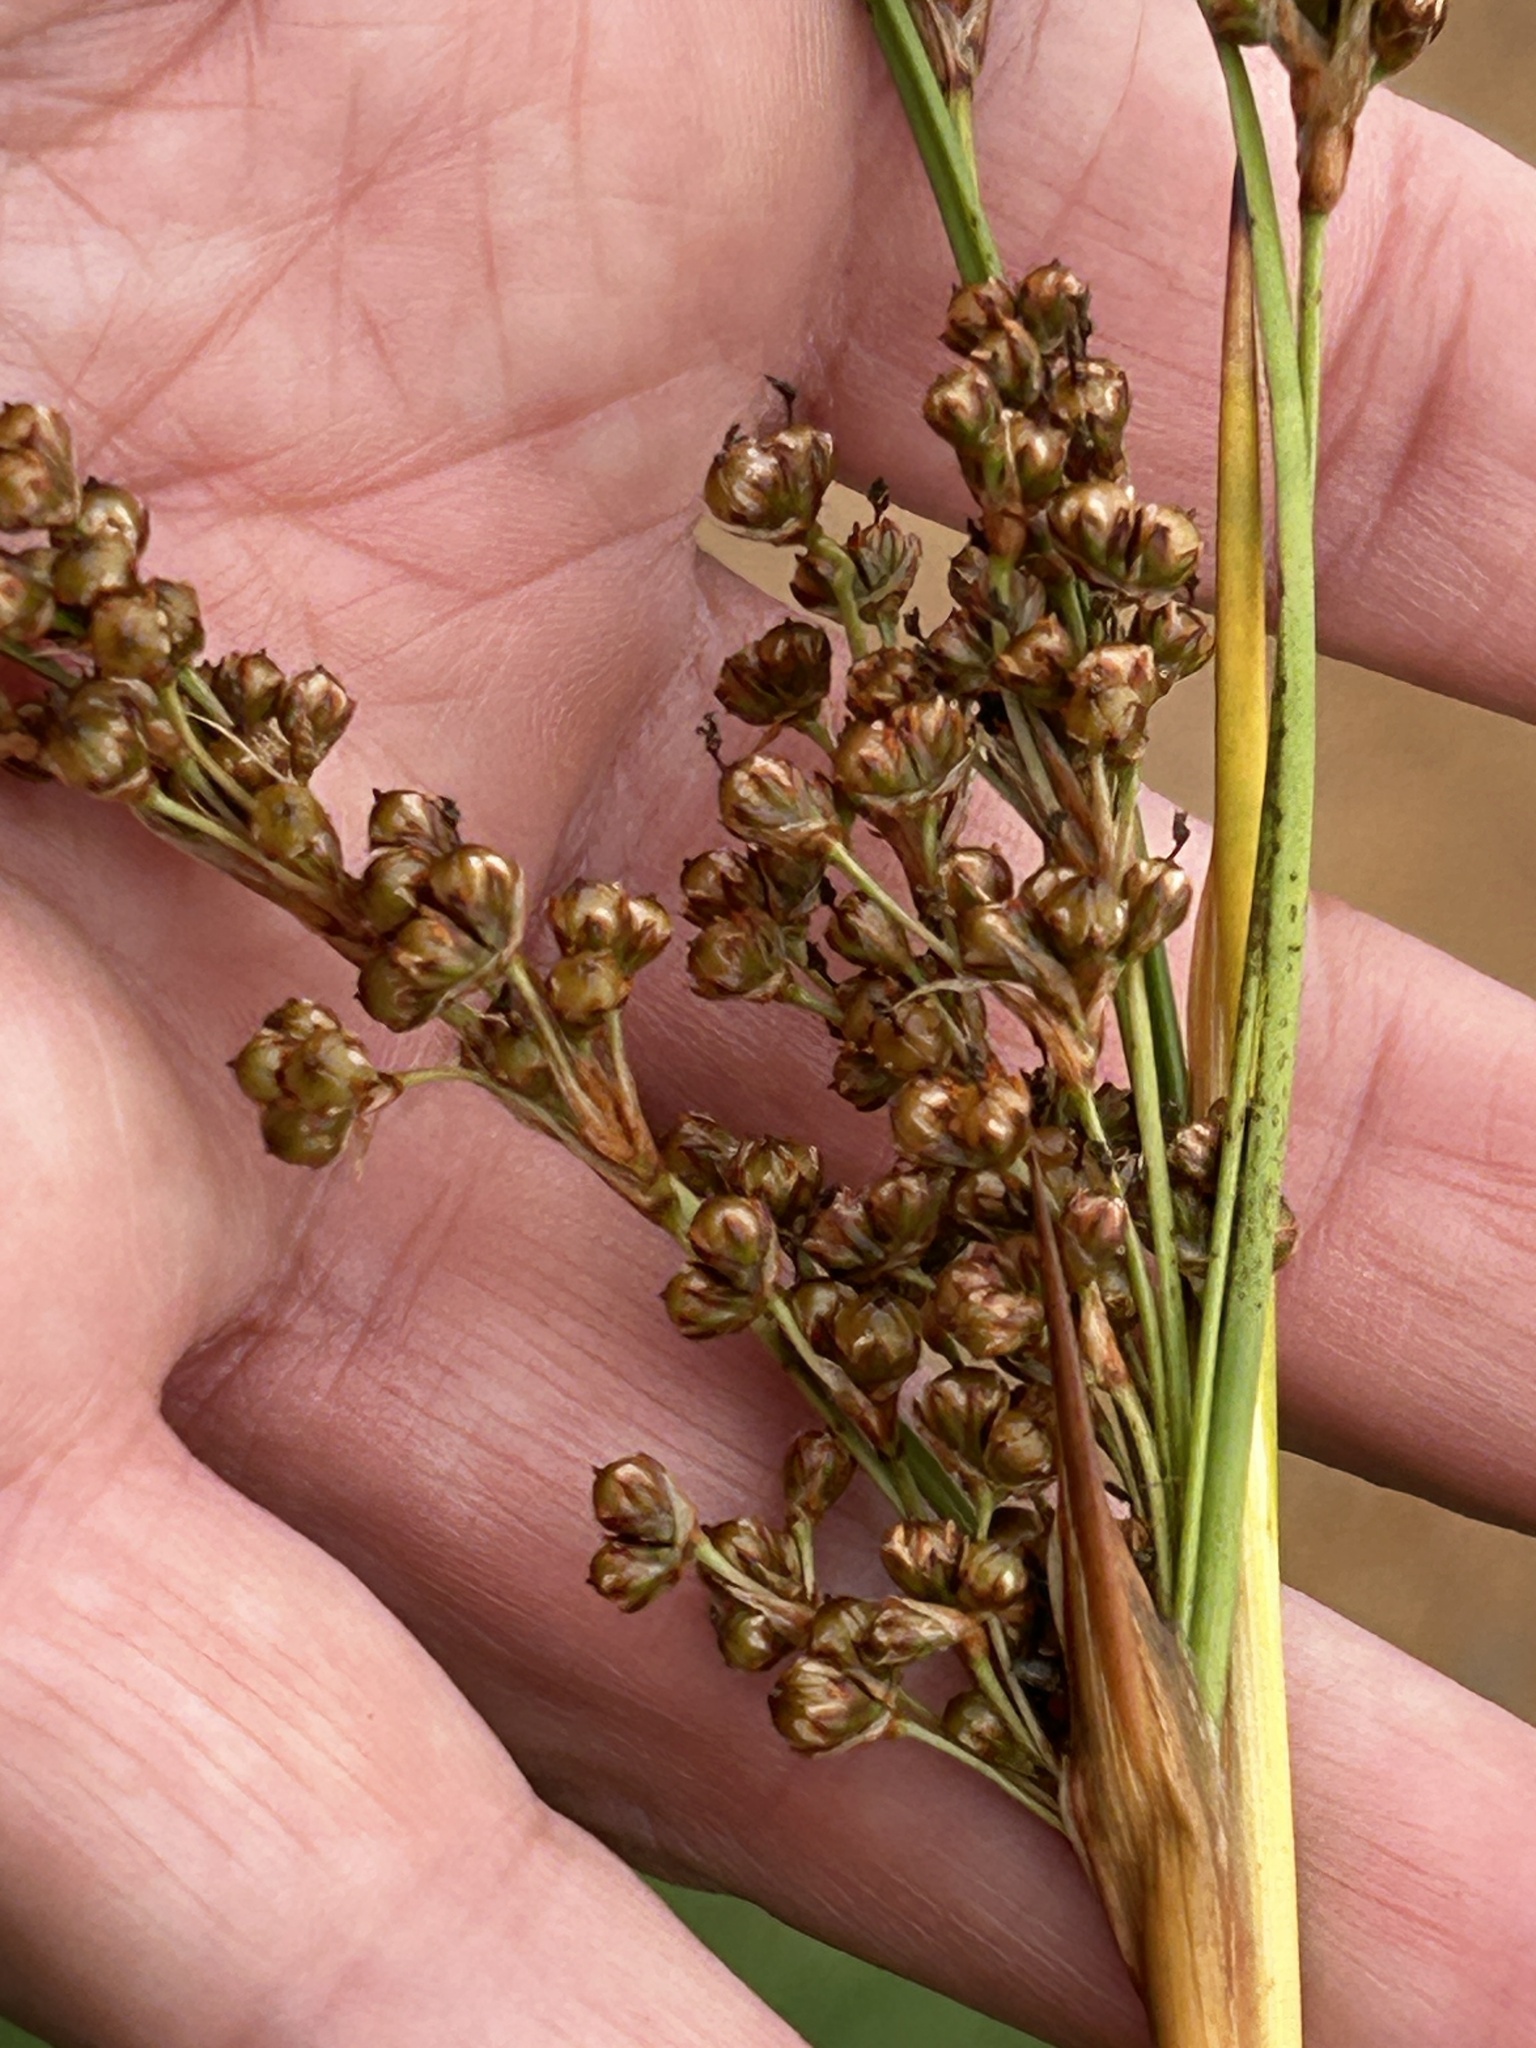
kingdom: Plantae
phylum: Tracheophyta
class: Liliopsida
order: Poales
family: Juncaceae
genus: Juncus
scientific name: Juncus acutus
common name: Sharp rush
